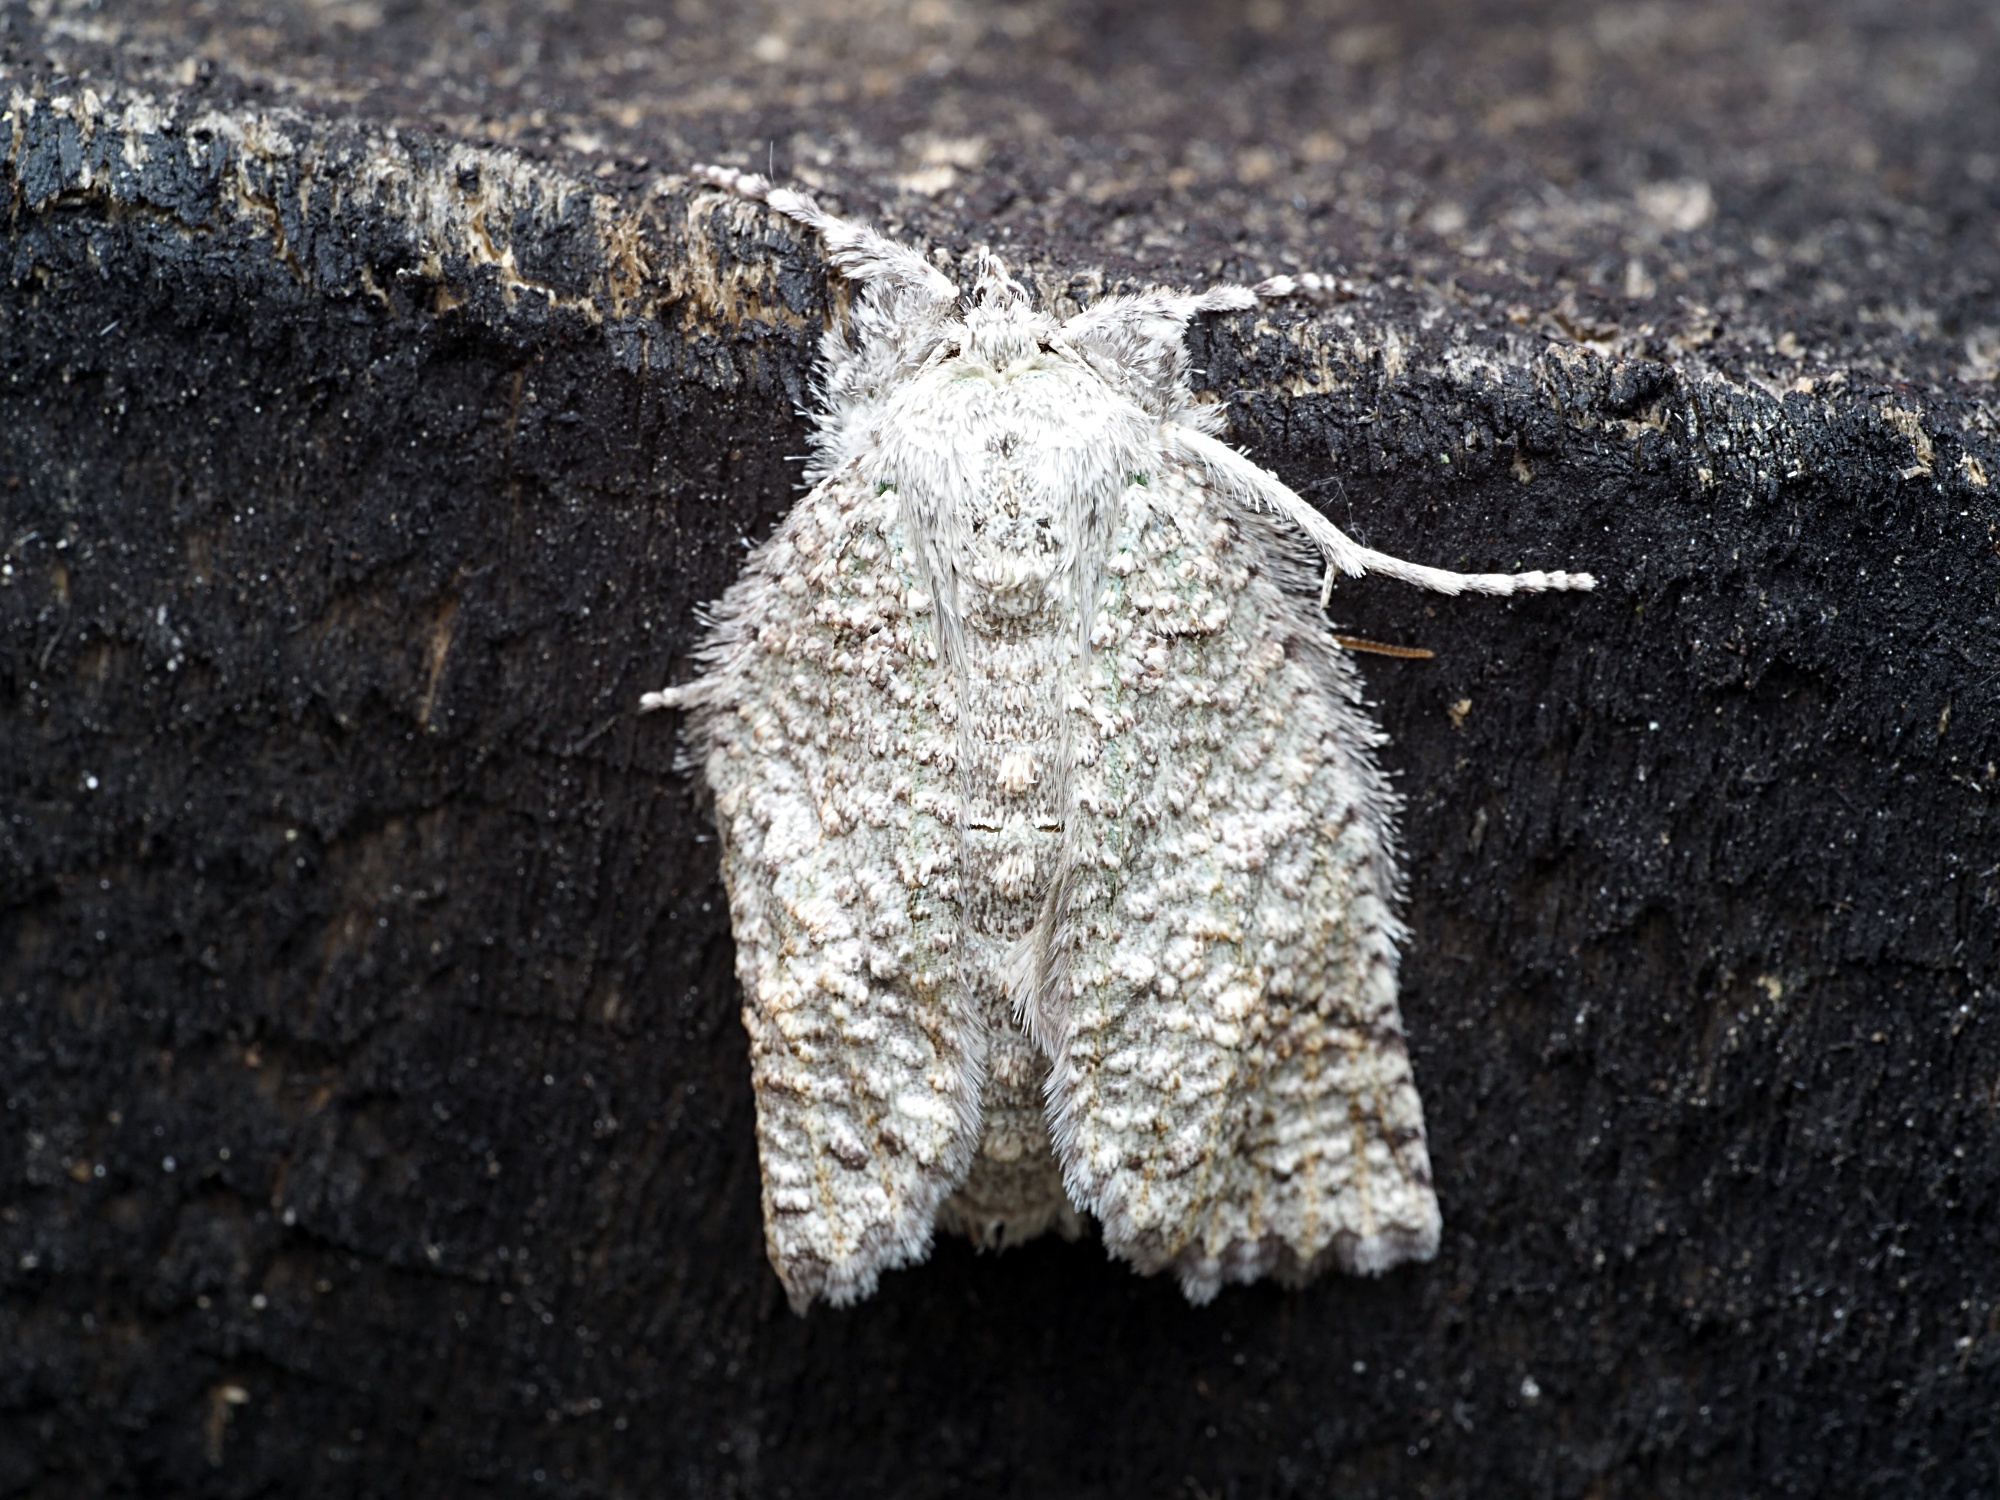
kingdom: Animalia
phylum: Arthropoda
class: Insecta
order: Lepidoptera
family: Geometridae
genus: Declana
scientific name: Declana floccosa
